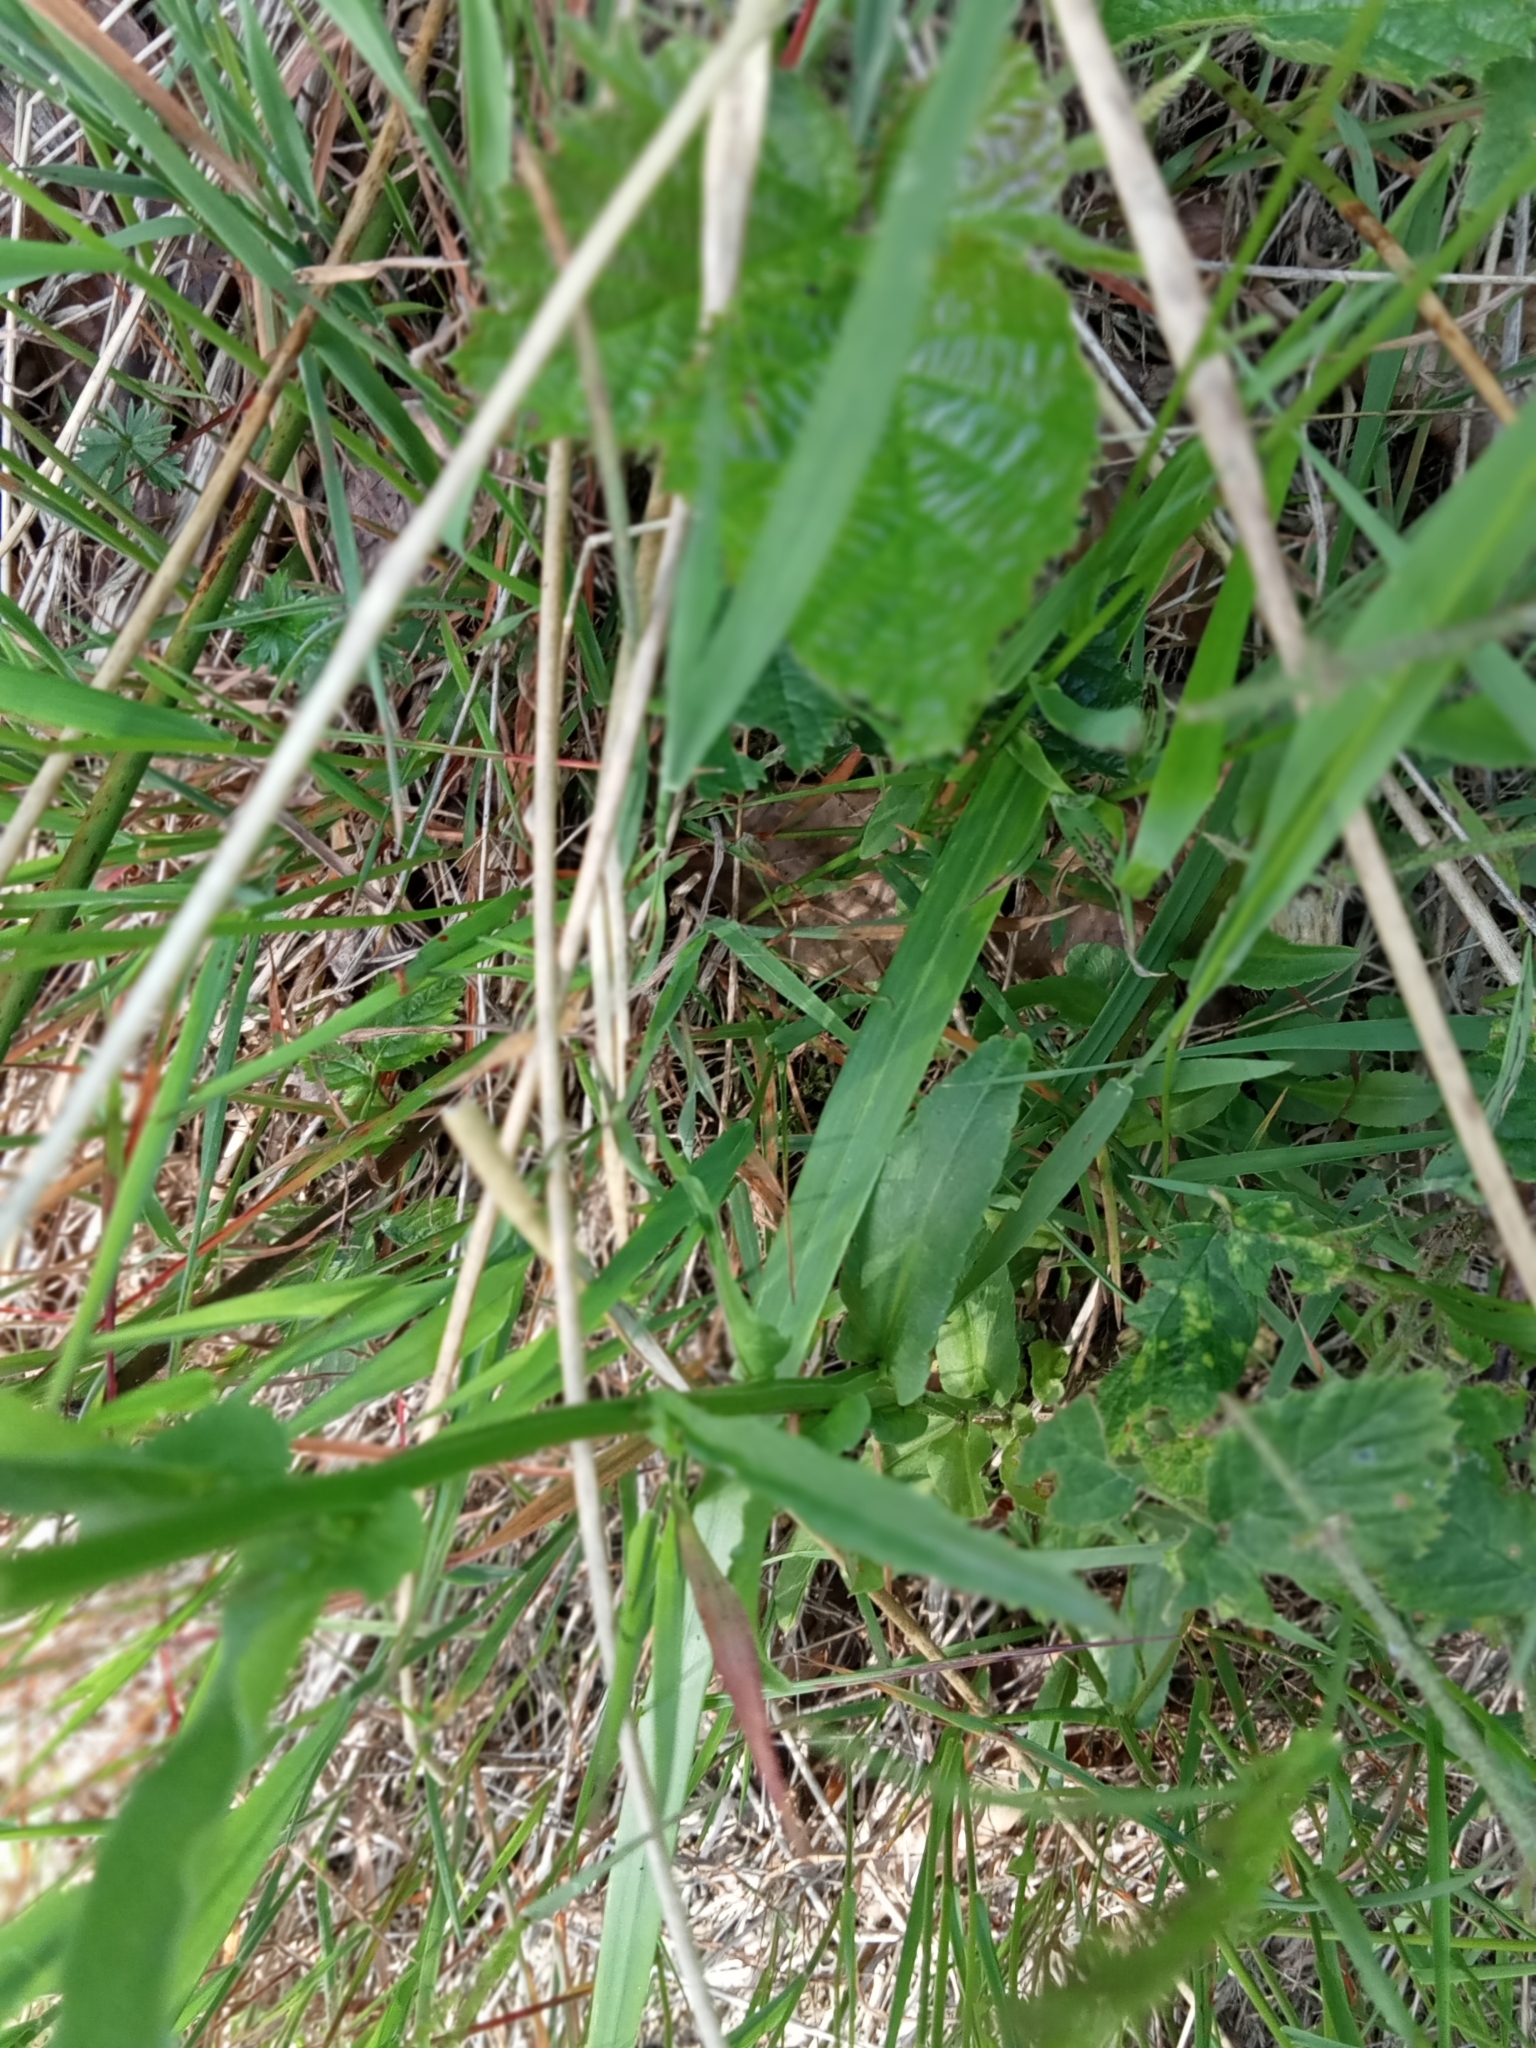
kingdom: Plantae
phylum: Tracheophyta
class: Magnoliopsida
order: Asterales
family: Campanulaceae
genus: Campanula
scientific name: Campanula patula
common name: Spreading bellflower
